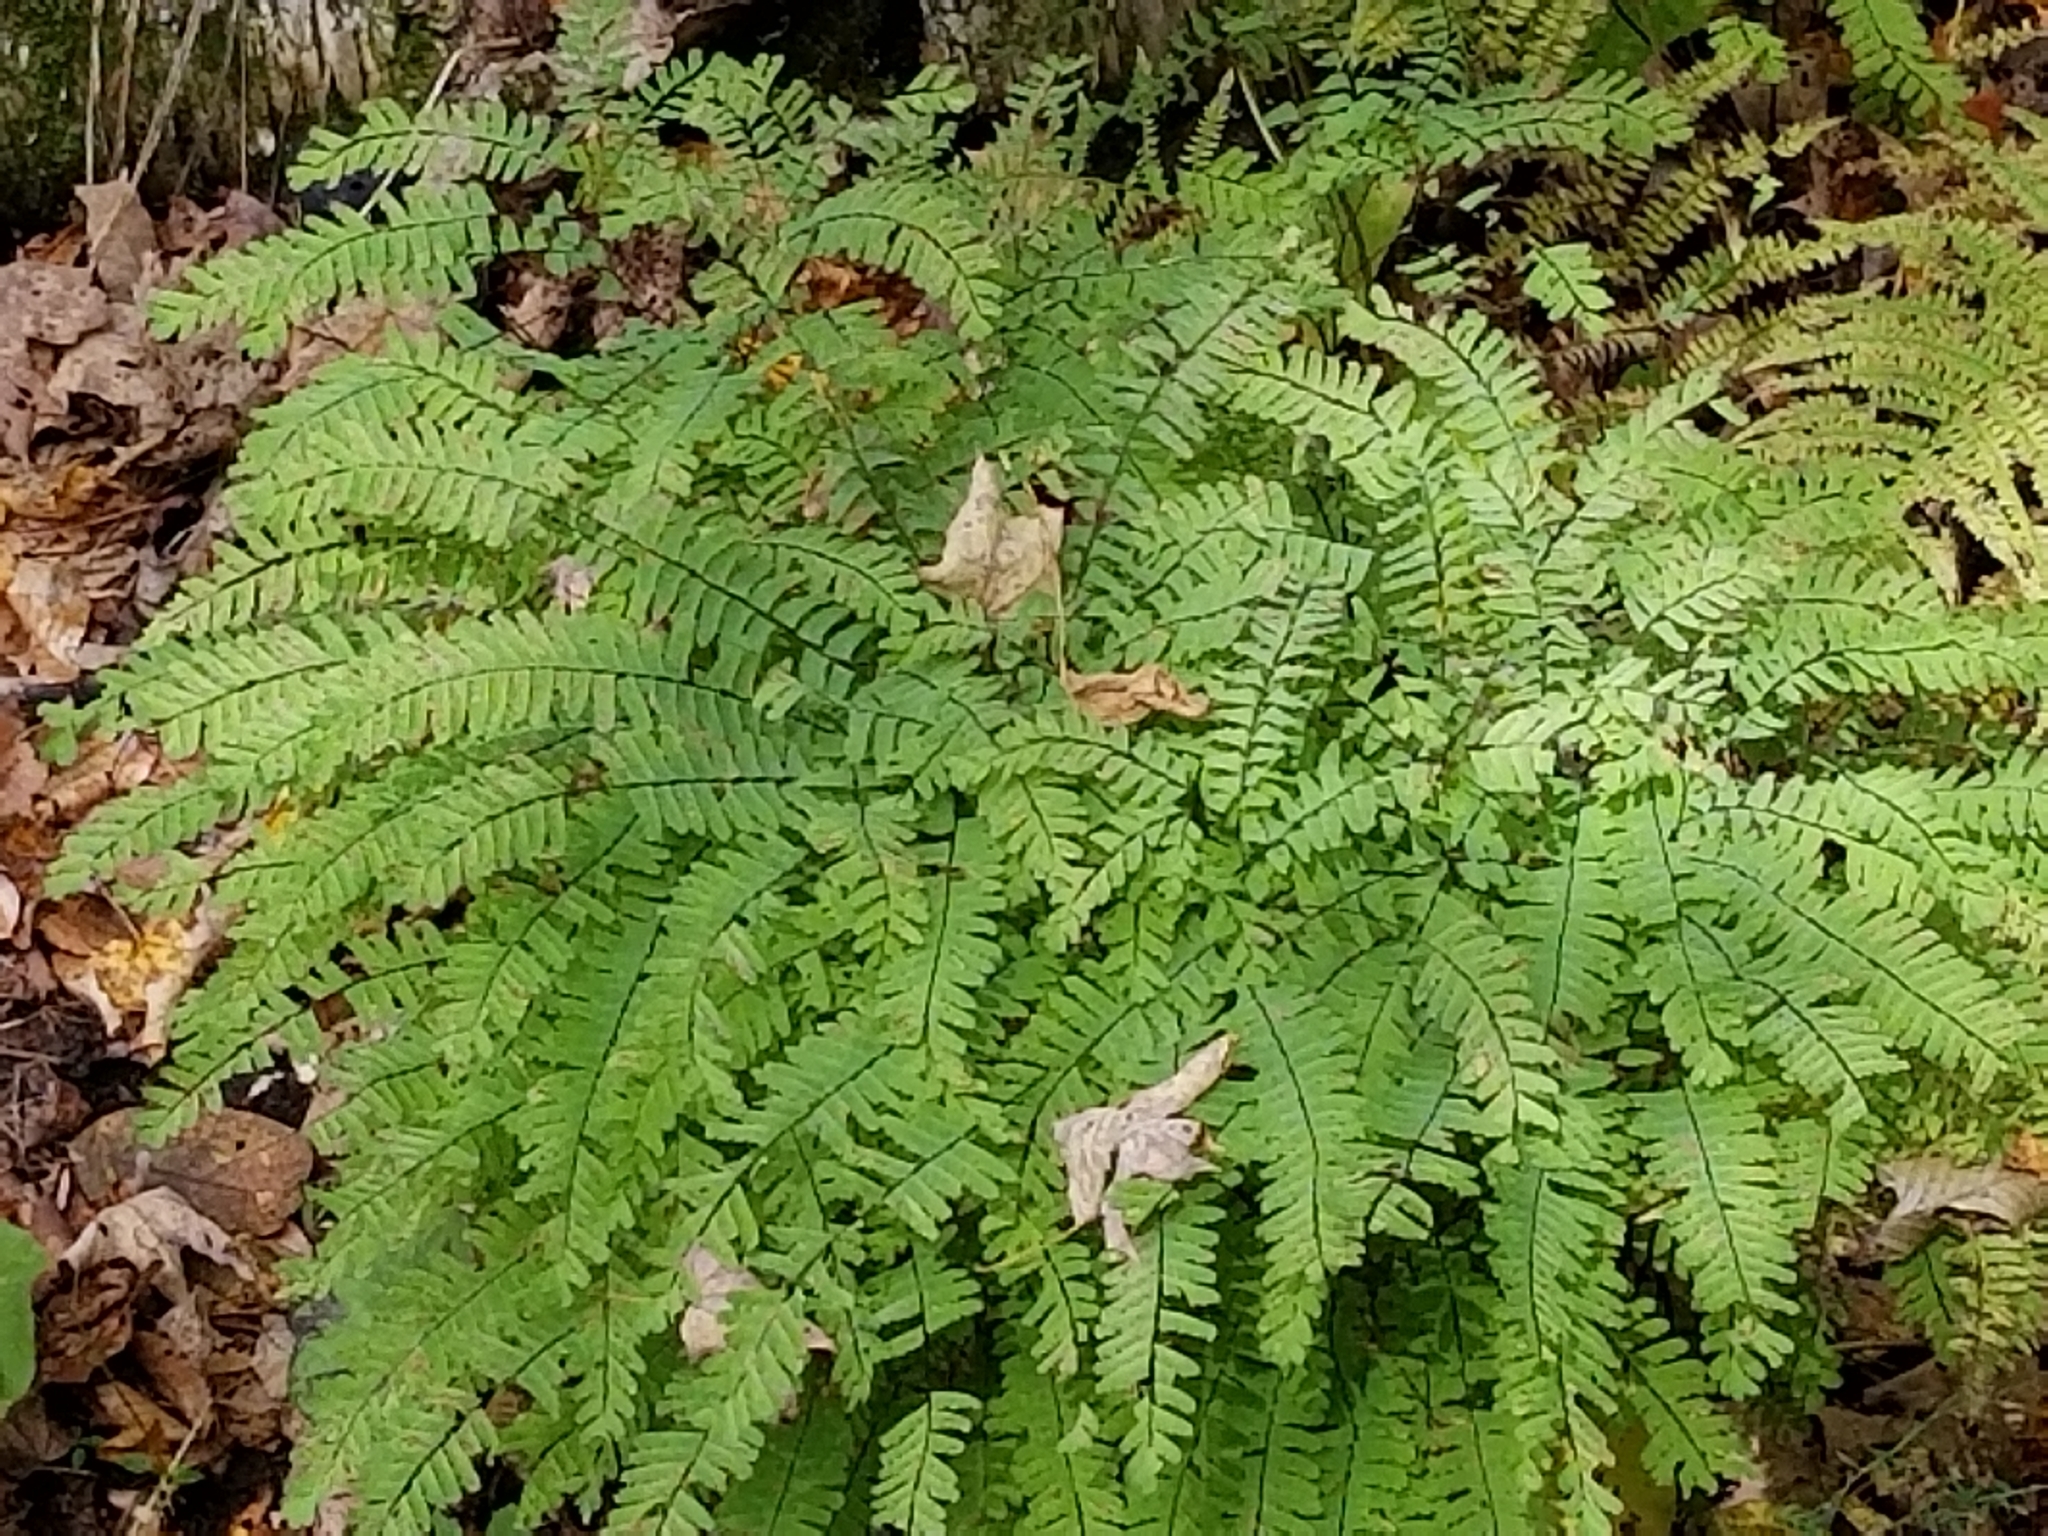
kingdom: Plantae
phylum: Tracheophyta
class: Polypodiopsida
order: Polypodiales
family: Pteridaceae
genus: Adiantum
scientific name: Adiantum pedatum
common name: Five-finger fern
